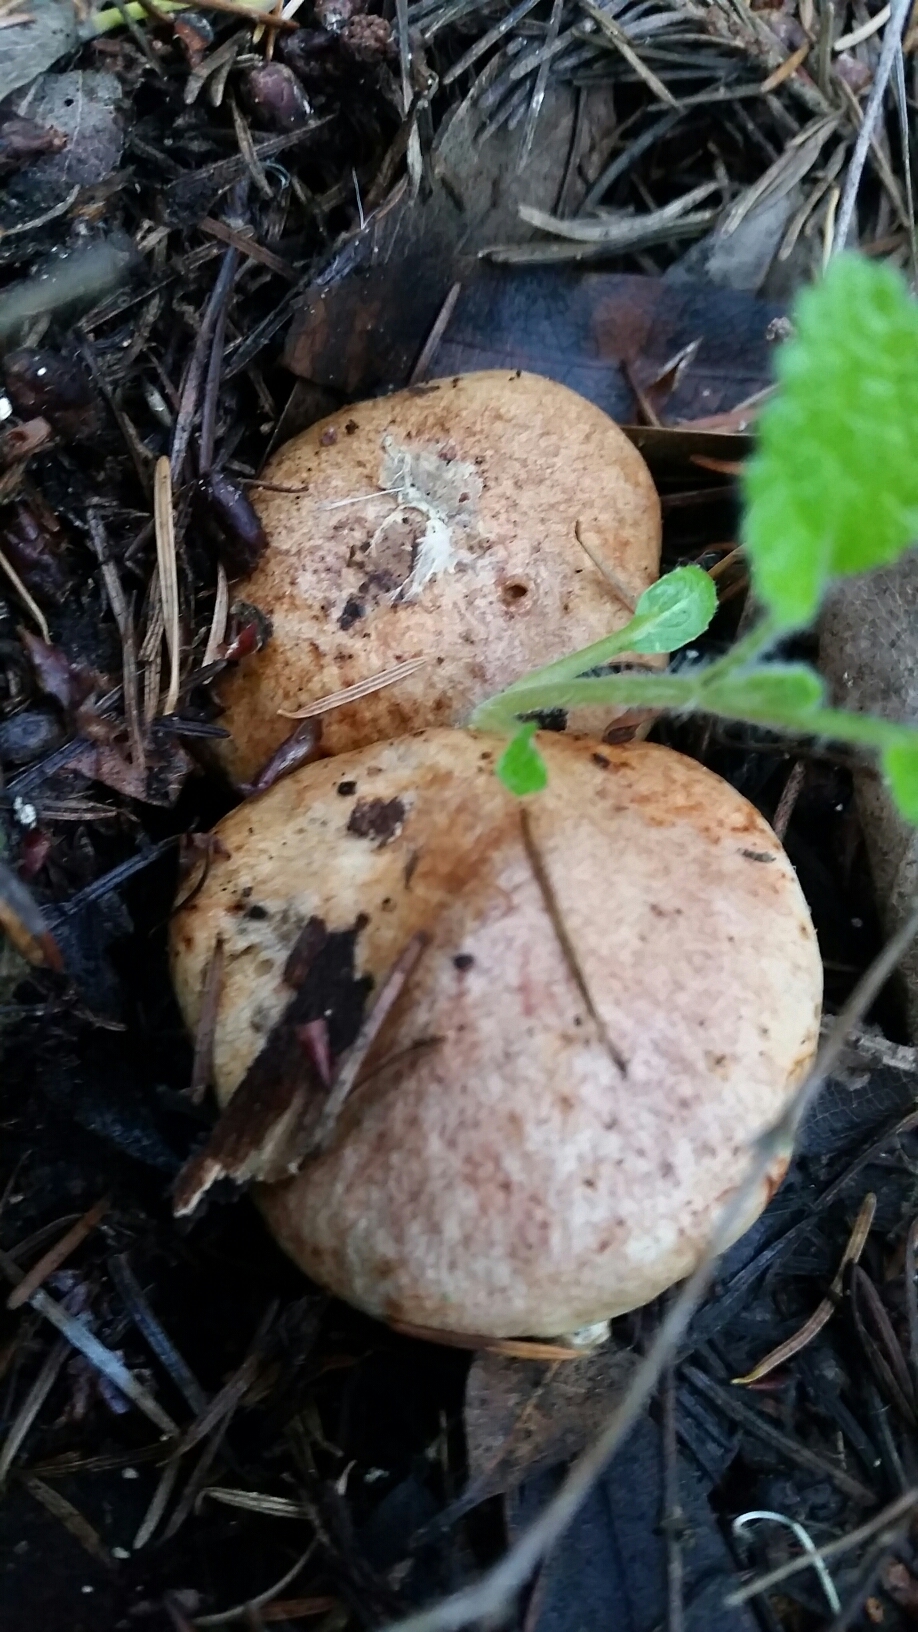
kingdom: Fungi
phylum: Basidiomycota
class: Agaricomycetes
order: Boletales
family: Suillaceae
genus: Suillus
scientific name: Suillus caerulescens
